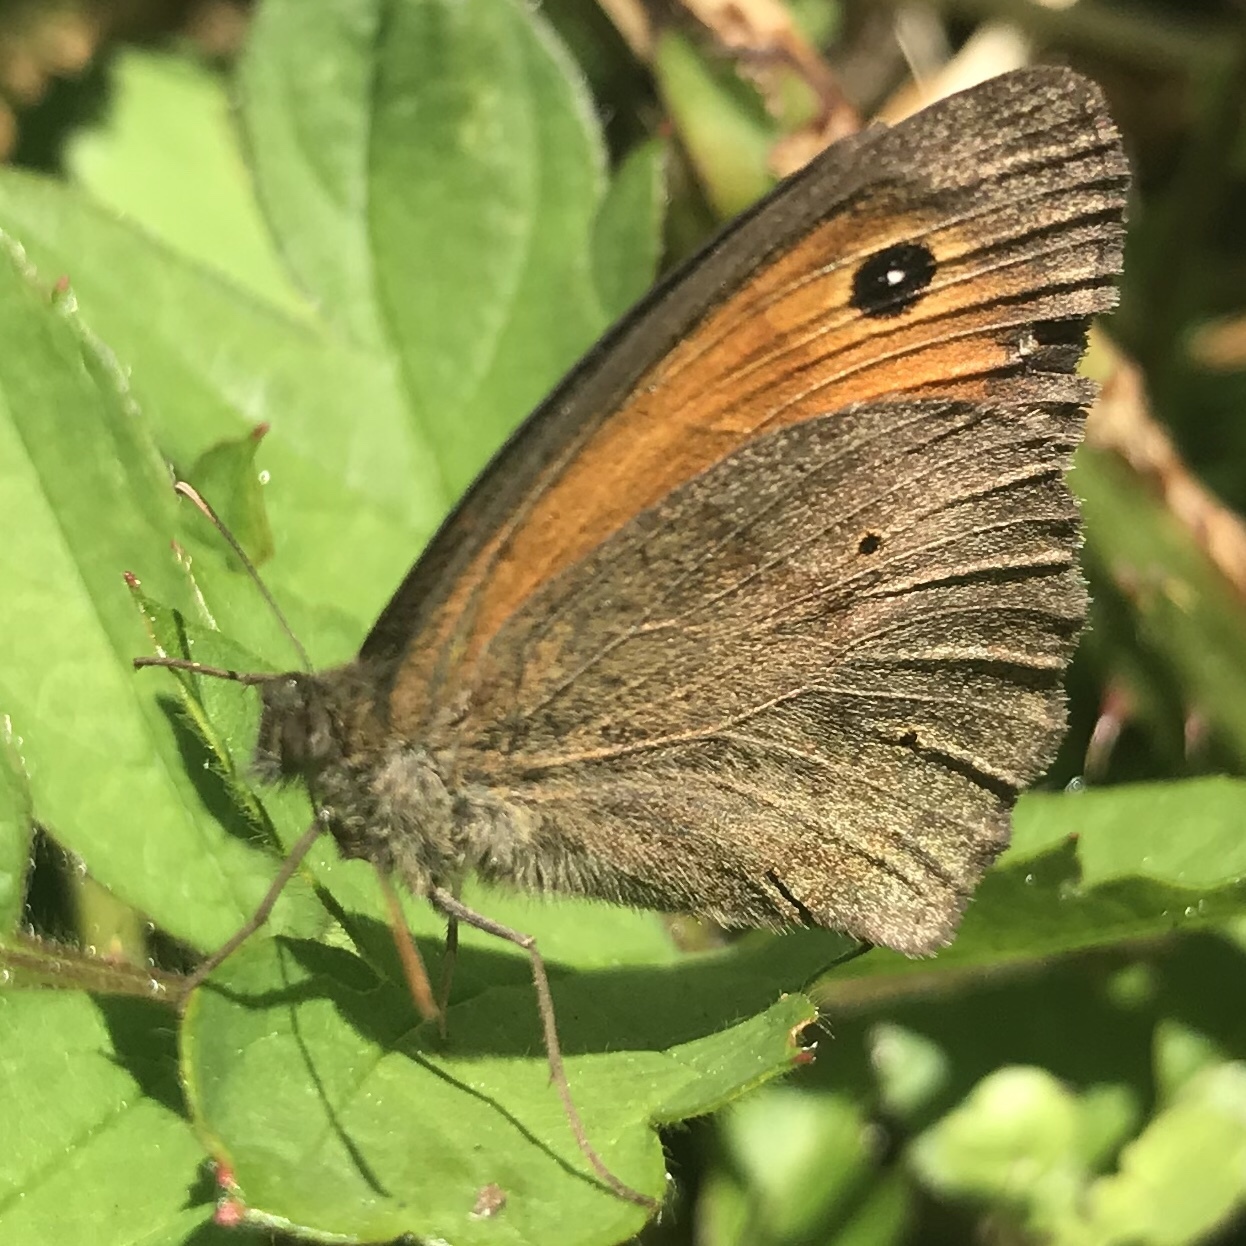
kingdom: Animalia
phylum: Arthropoda
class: Insecta
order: Lepidoptera
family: Nymphalidae
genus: Maniola
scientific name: Maniola jurtina
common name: Meadow brown
